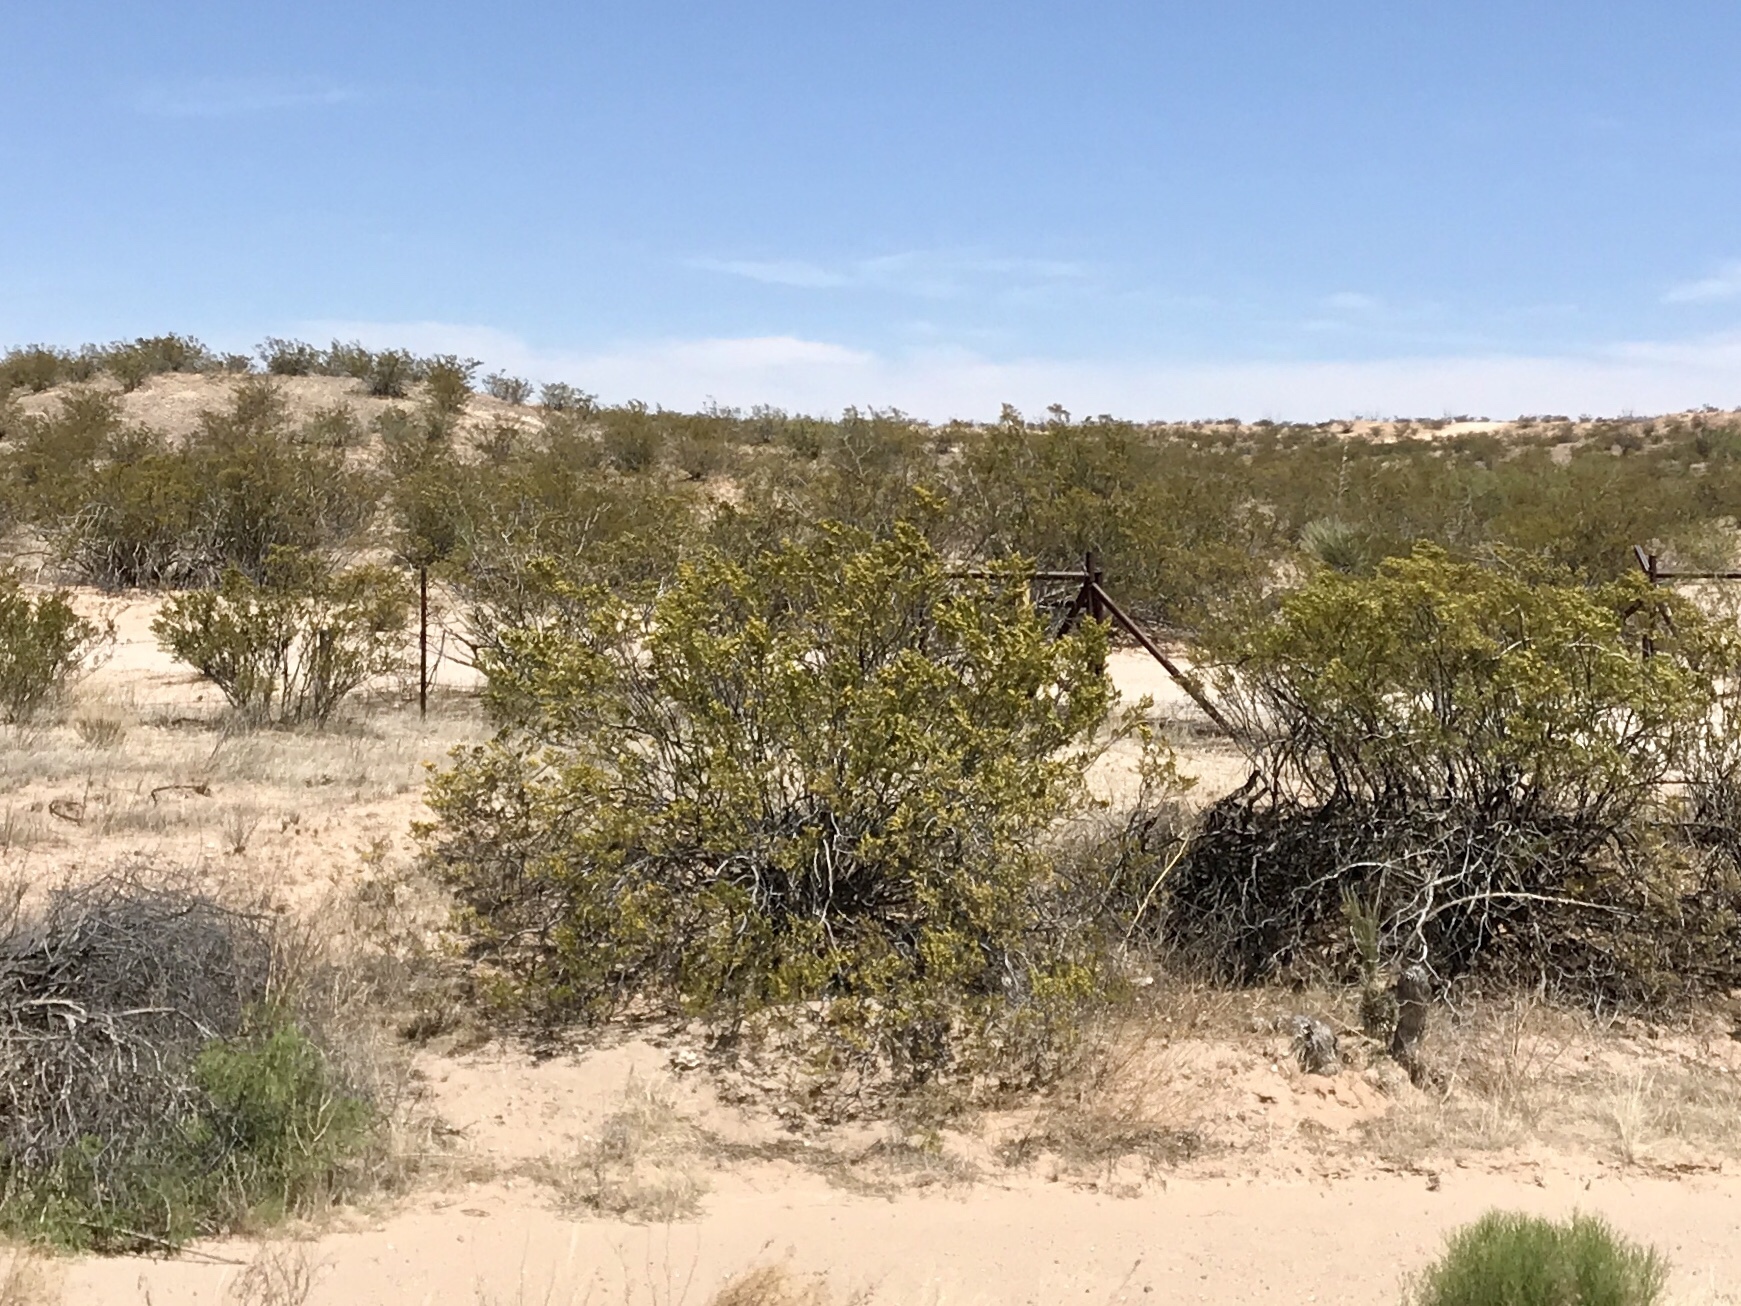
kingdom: Plantae
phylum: Tracheophyta
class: Magnoliopsida
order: Zygophyllales
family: Zygophyllaceae
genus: Larrea
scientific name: Larrea tridentata
